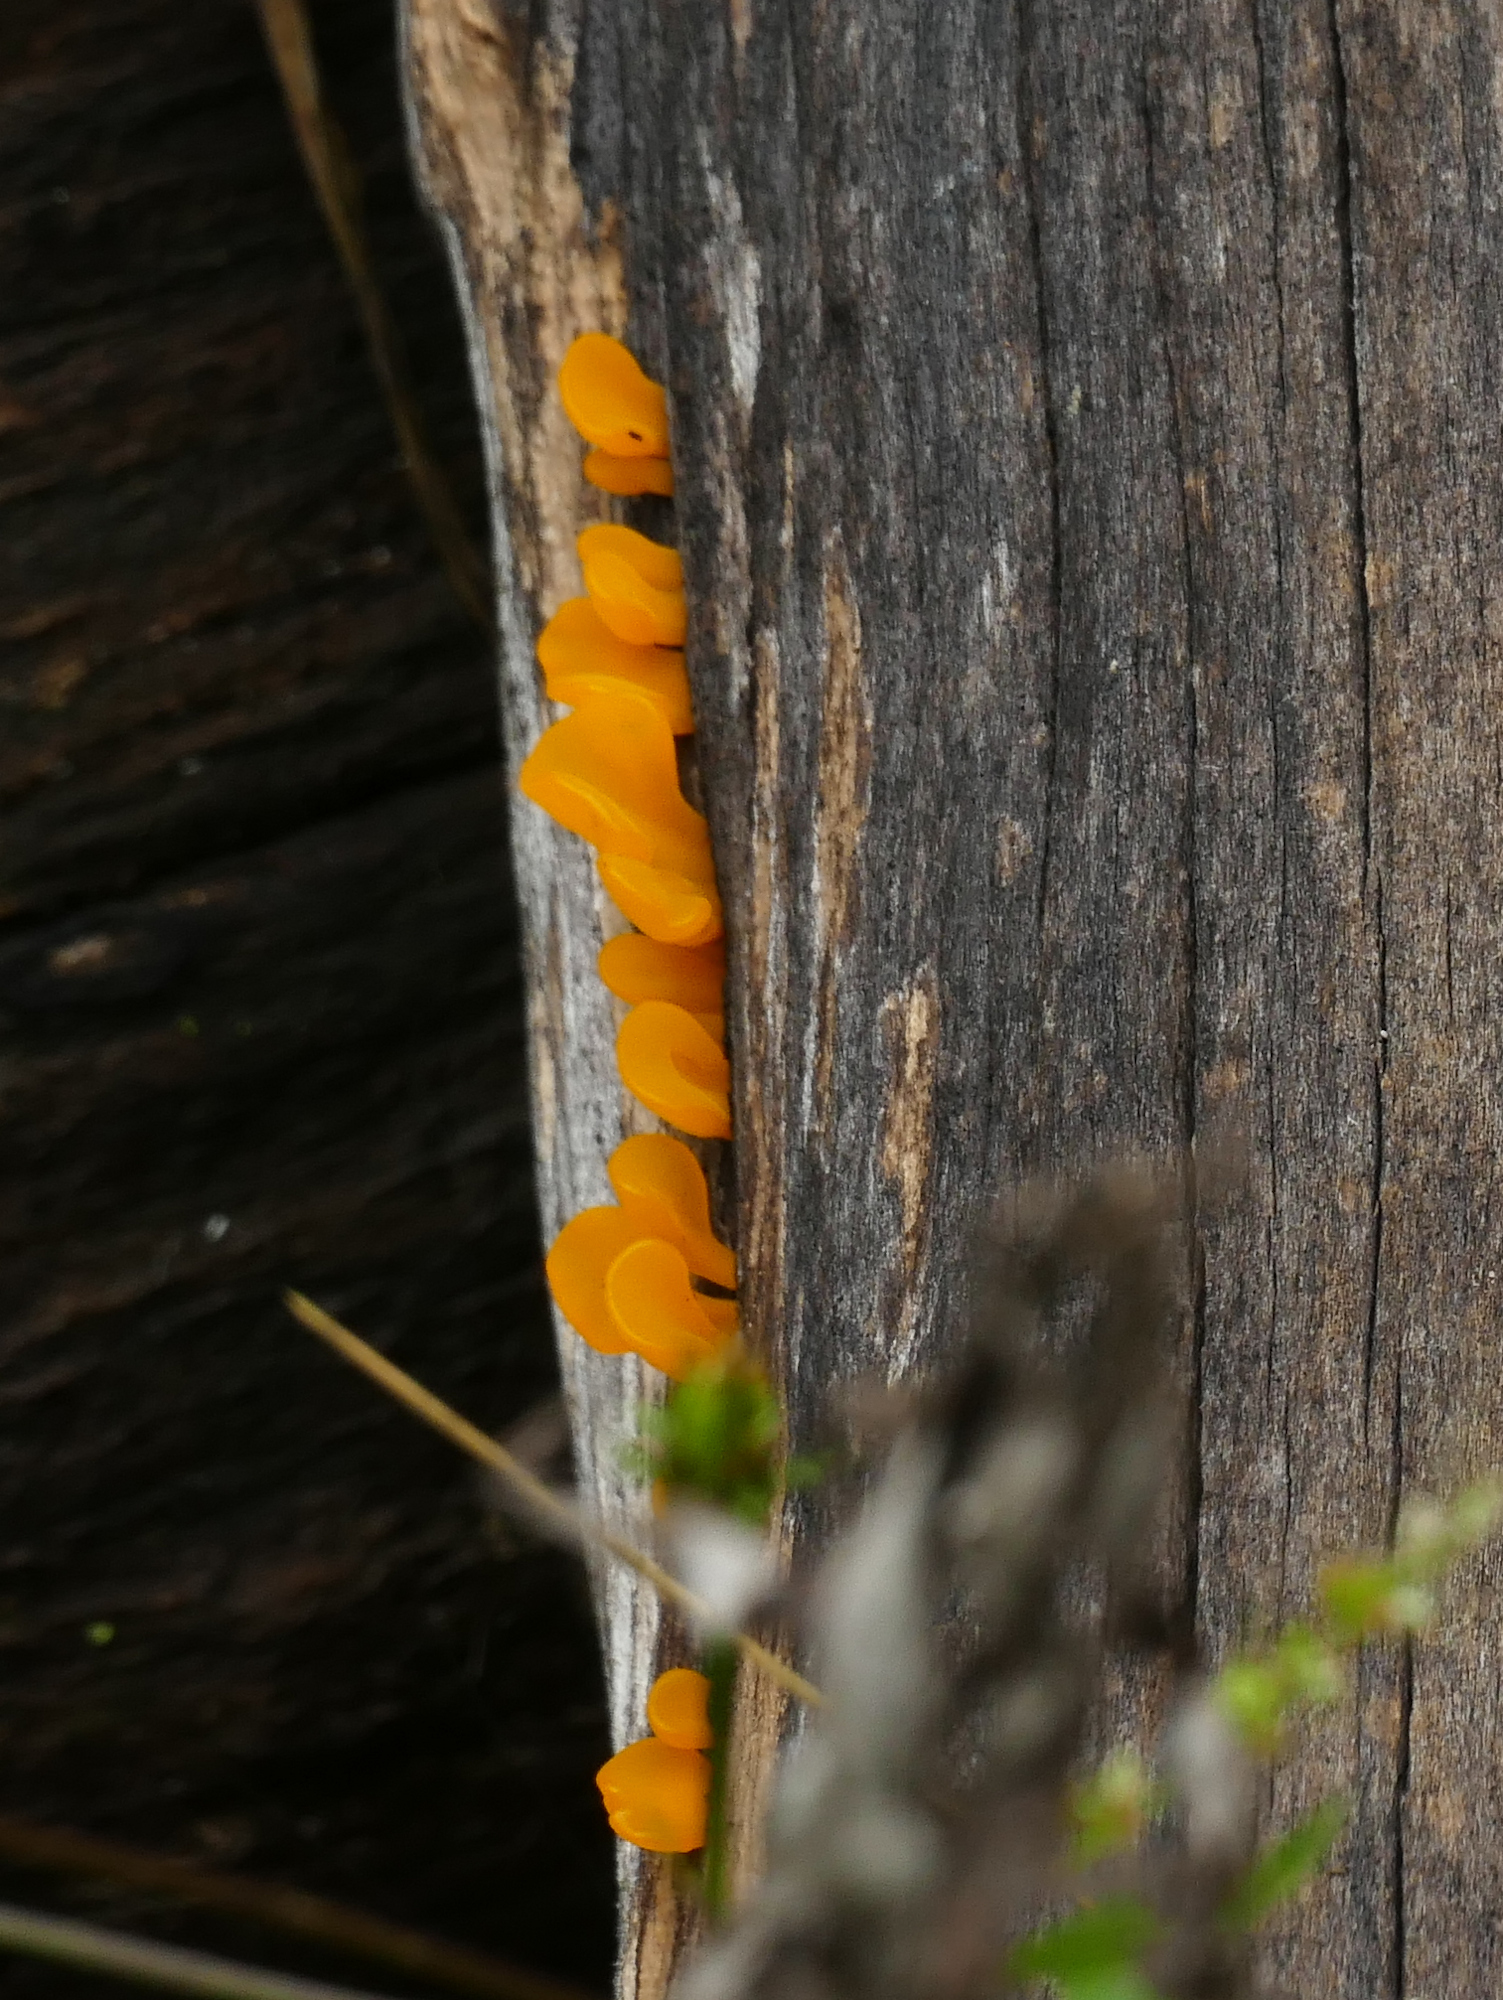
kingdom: Fungi
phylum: Basidiomycota
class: Dacrymycetes
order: Dacrymycetales
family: Dacrymycetaceae
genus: Dacrymyces
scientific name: Dacrymyces spathularius
